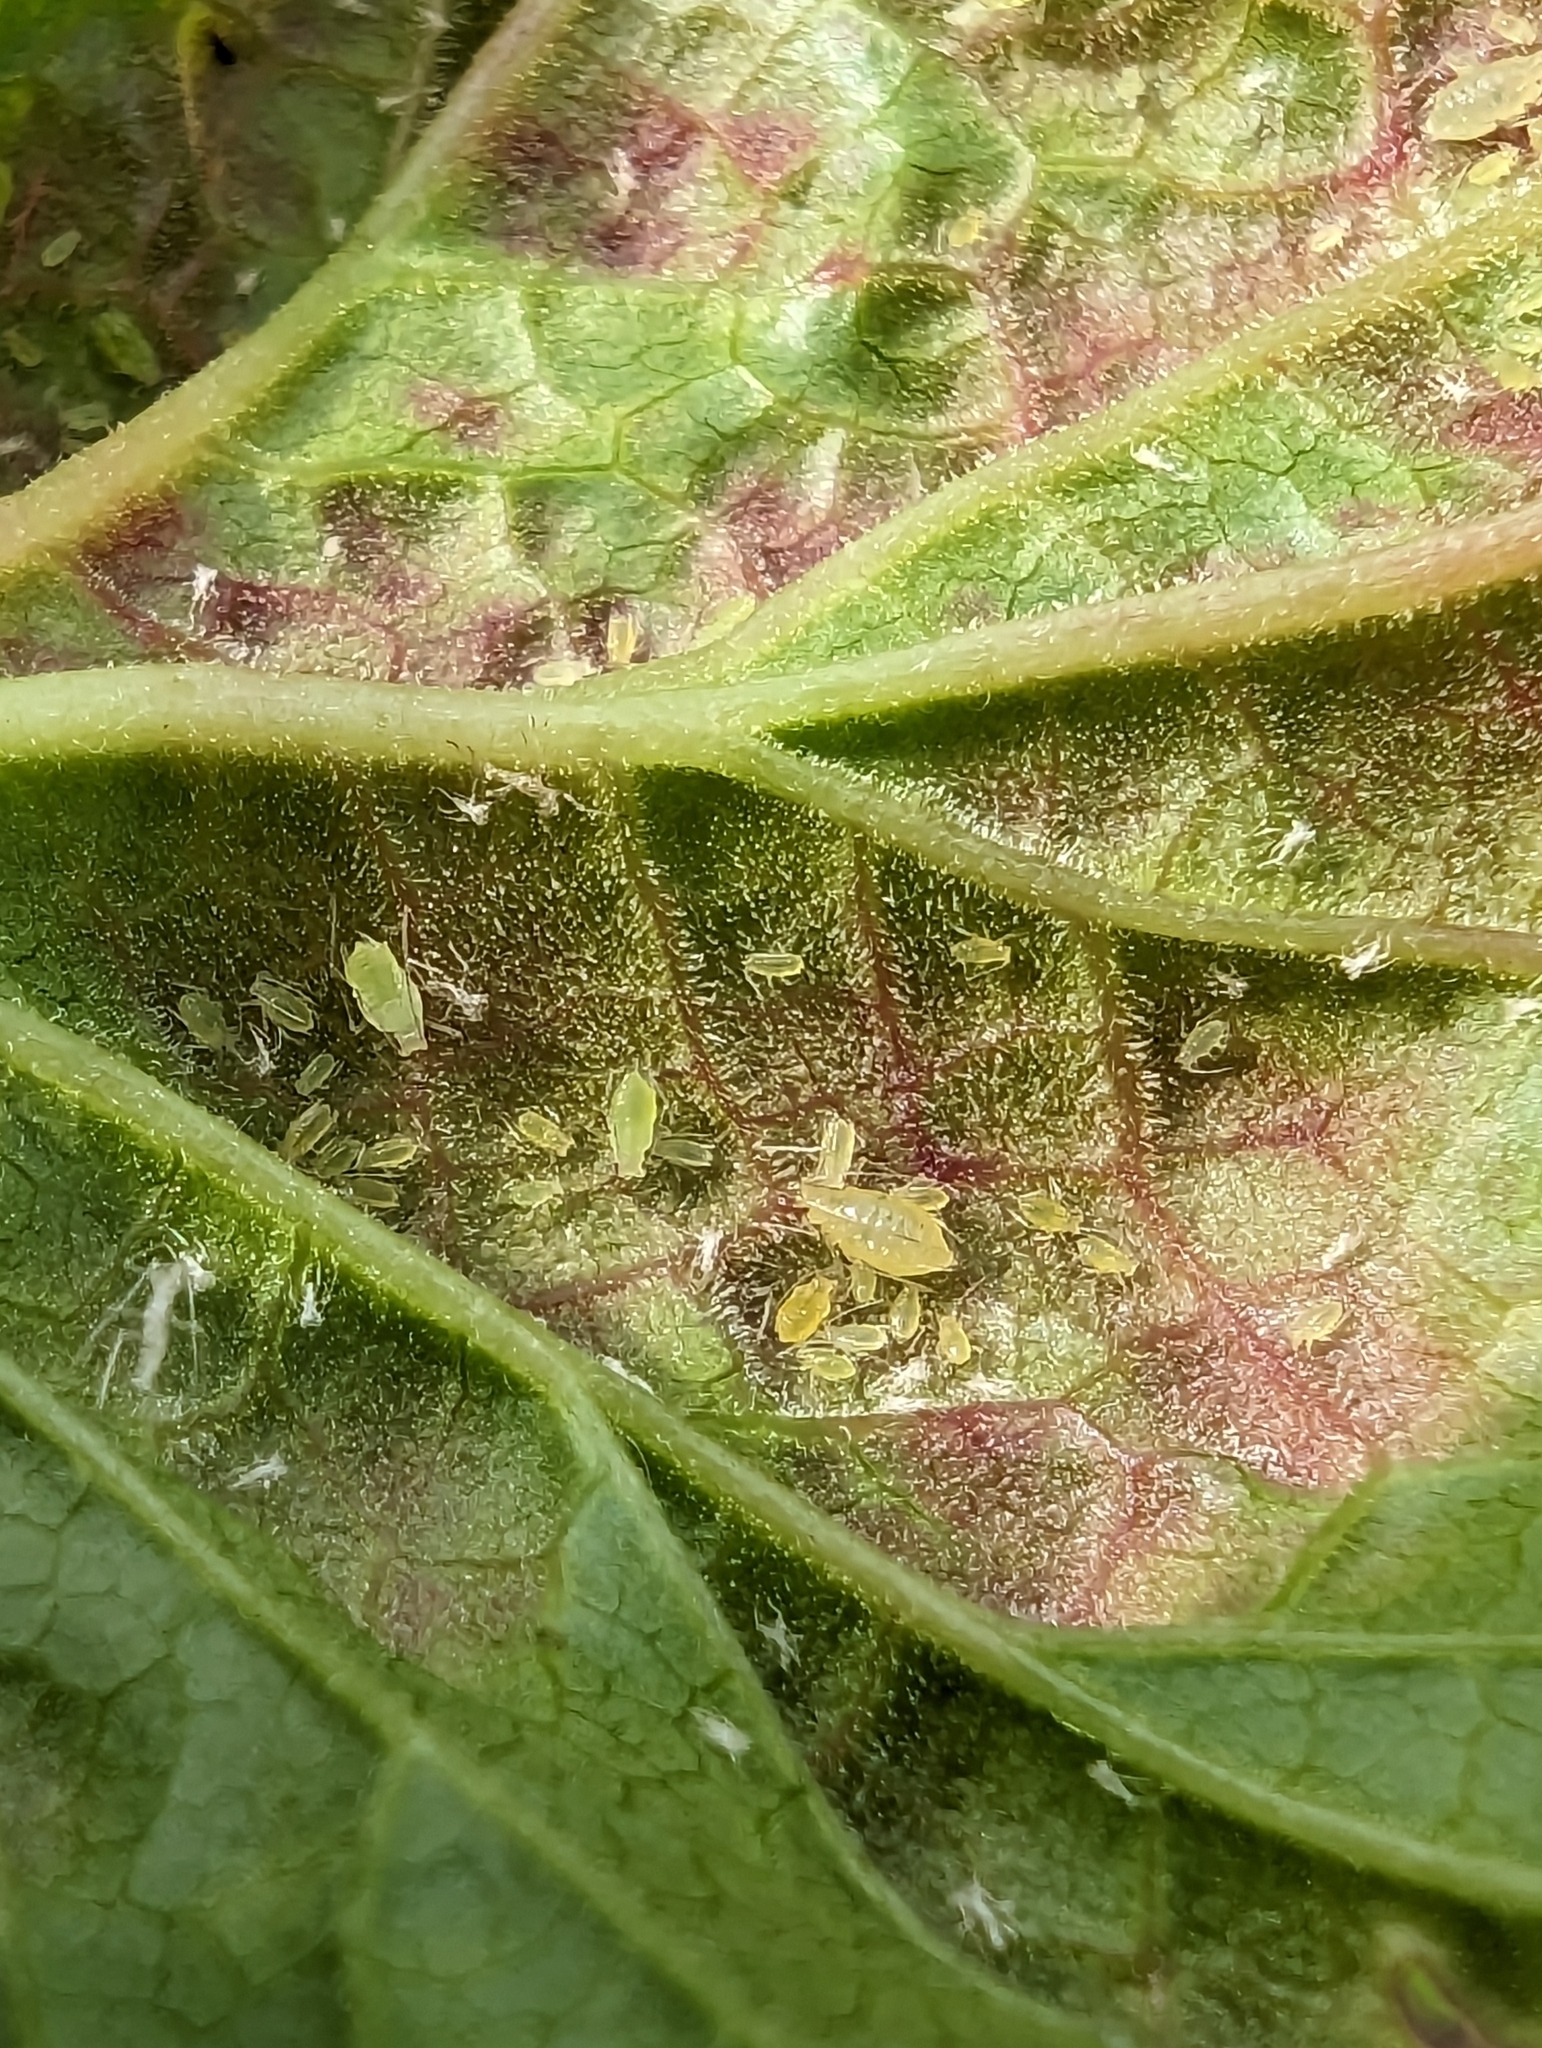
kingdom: Animalia
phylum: Arthropoda
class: Insecta
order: Hemiptera
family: Aphididae
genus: Cryptomyzus
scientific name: Cryptomyzus ribis
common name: Currant aphid
